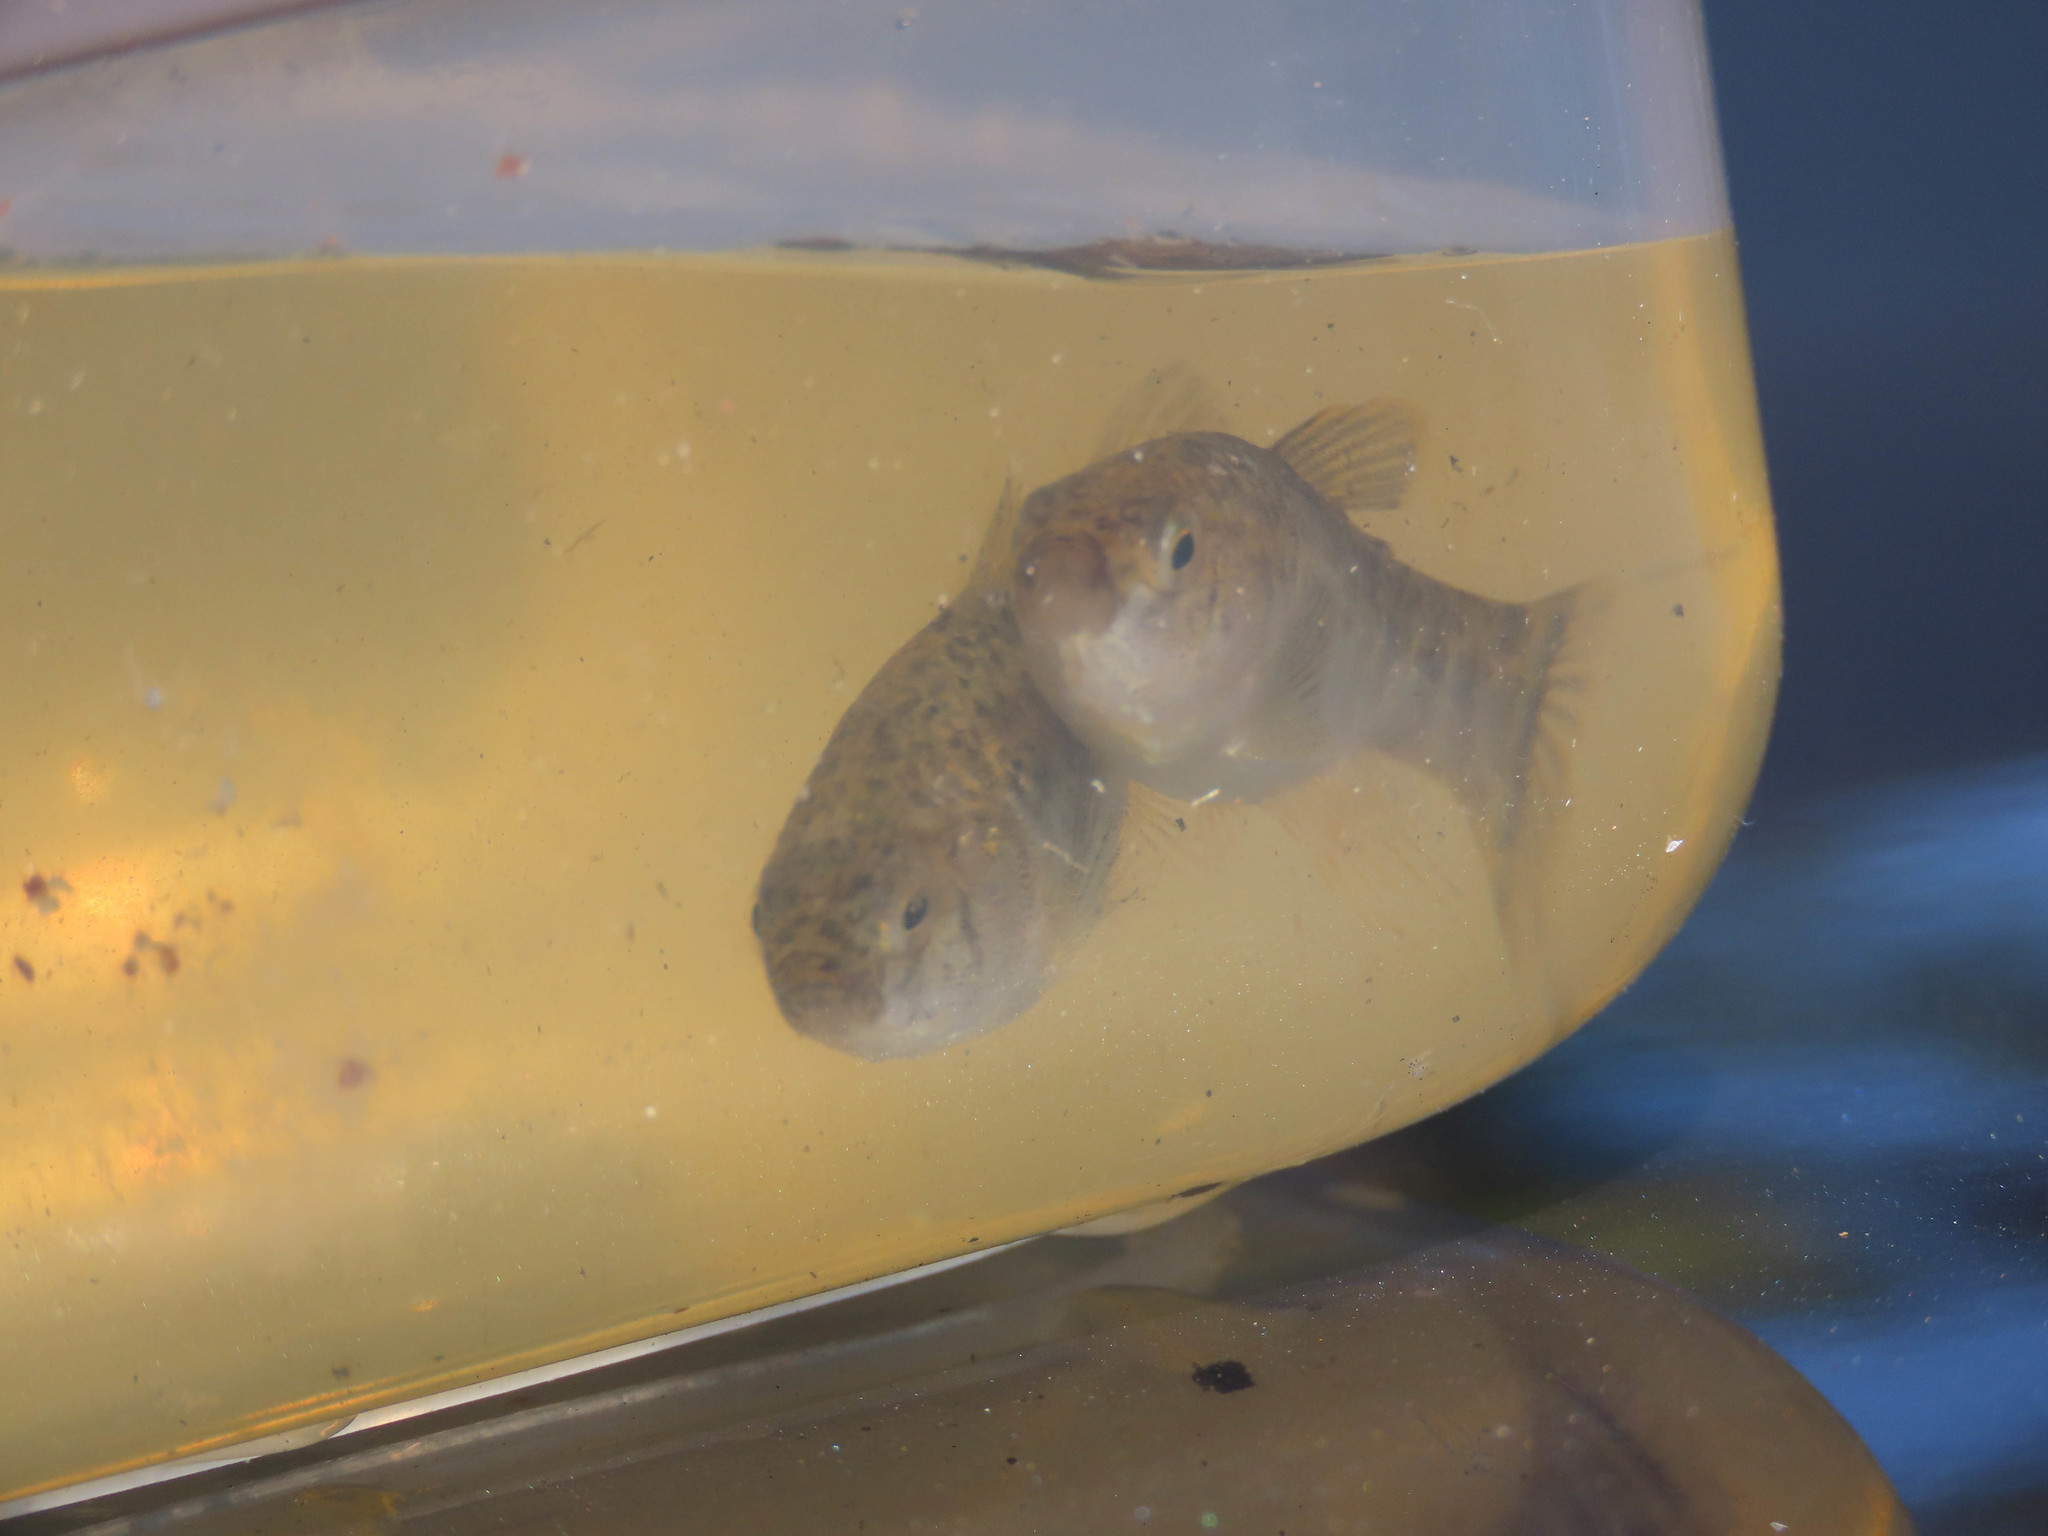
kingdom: Animalia
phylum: Chordata
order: Cyprinodontiformes
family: Cyprinodontidae
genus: Cyprinodon
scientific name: Cyprinodon variegatus
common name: Sheepshead minnow
